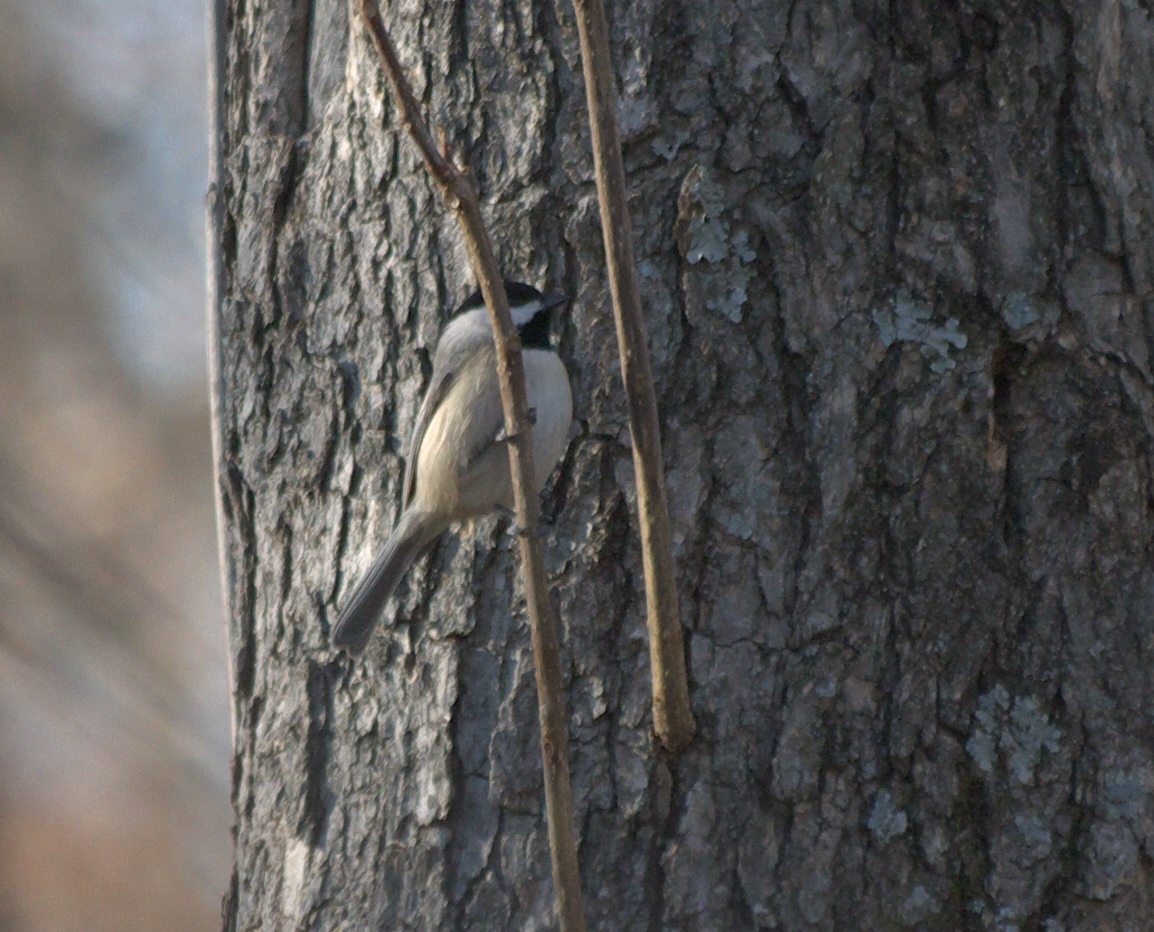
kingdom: Animalia
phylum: Chordata
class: Aves
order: Passeriformes
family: Paridae
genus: Poecile
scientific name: Poecile carolinensis
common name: Carolina chickadee
